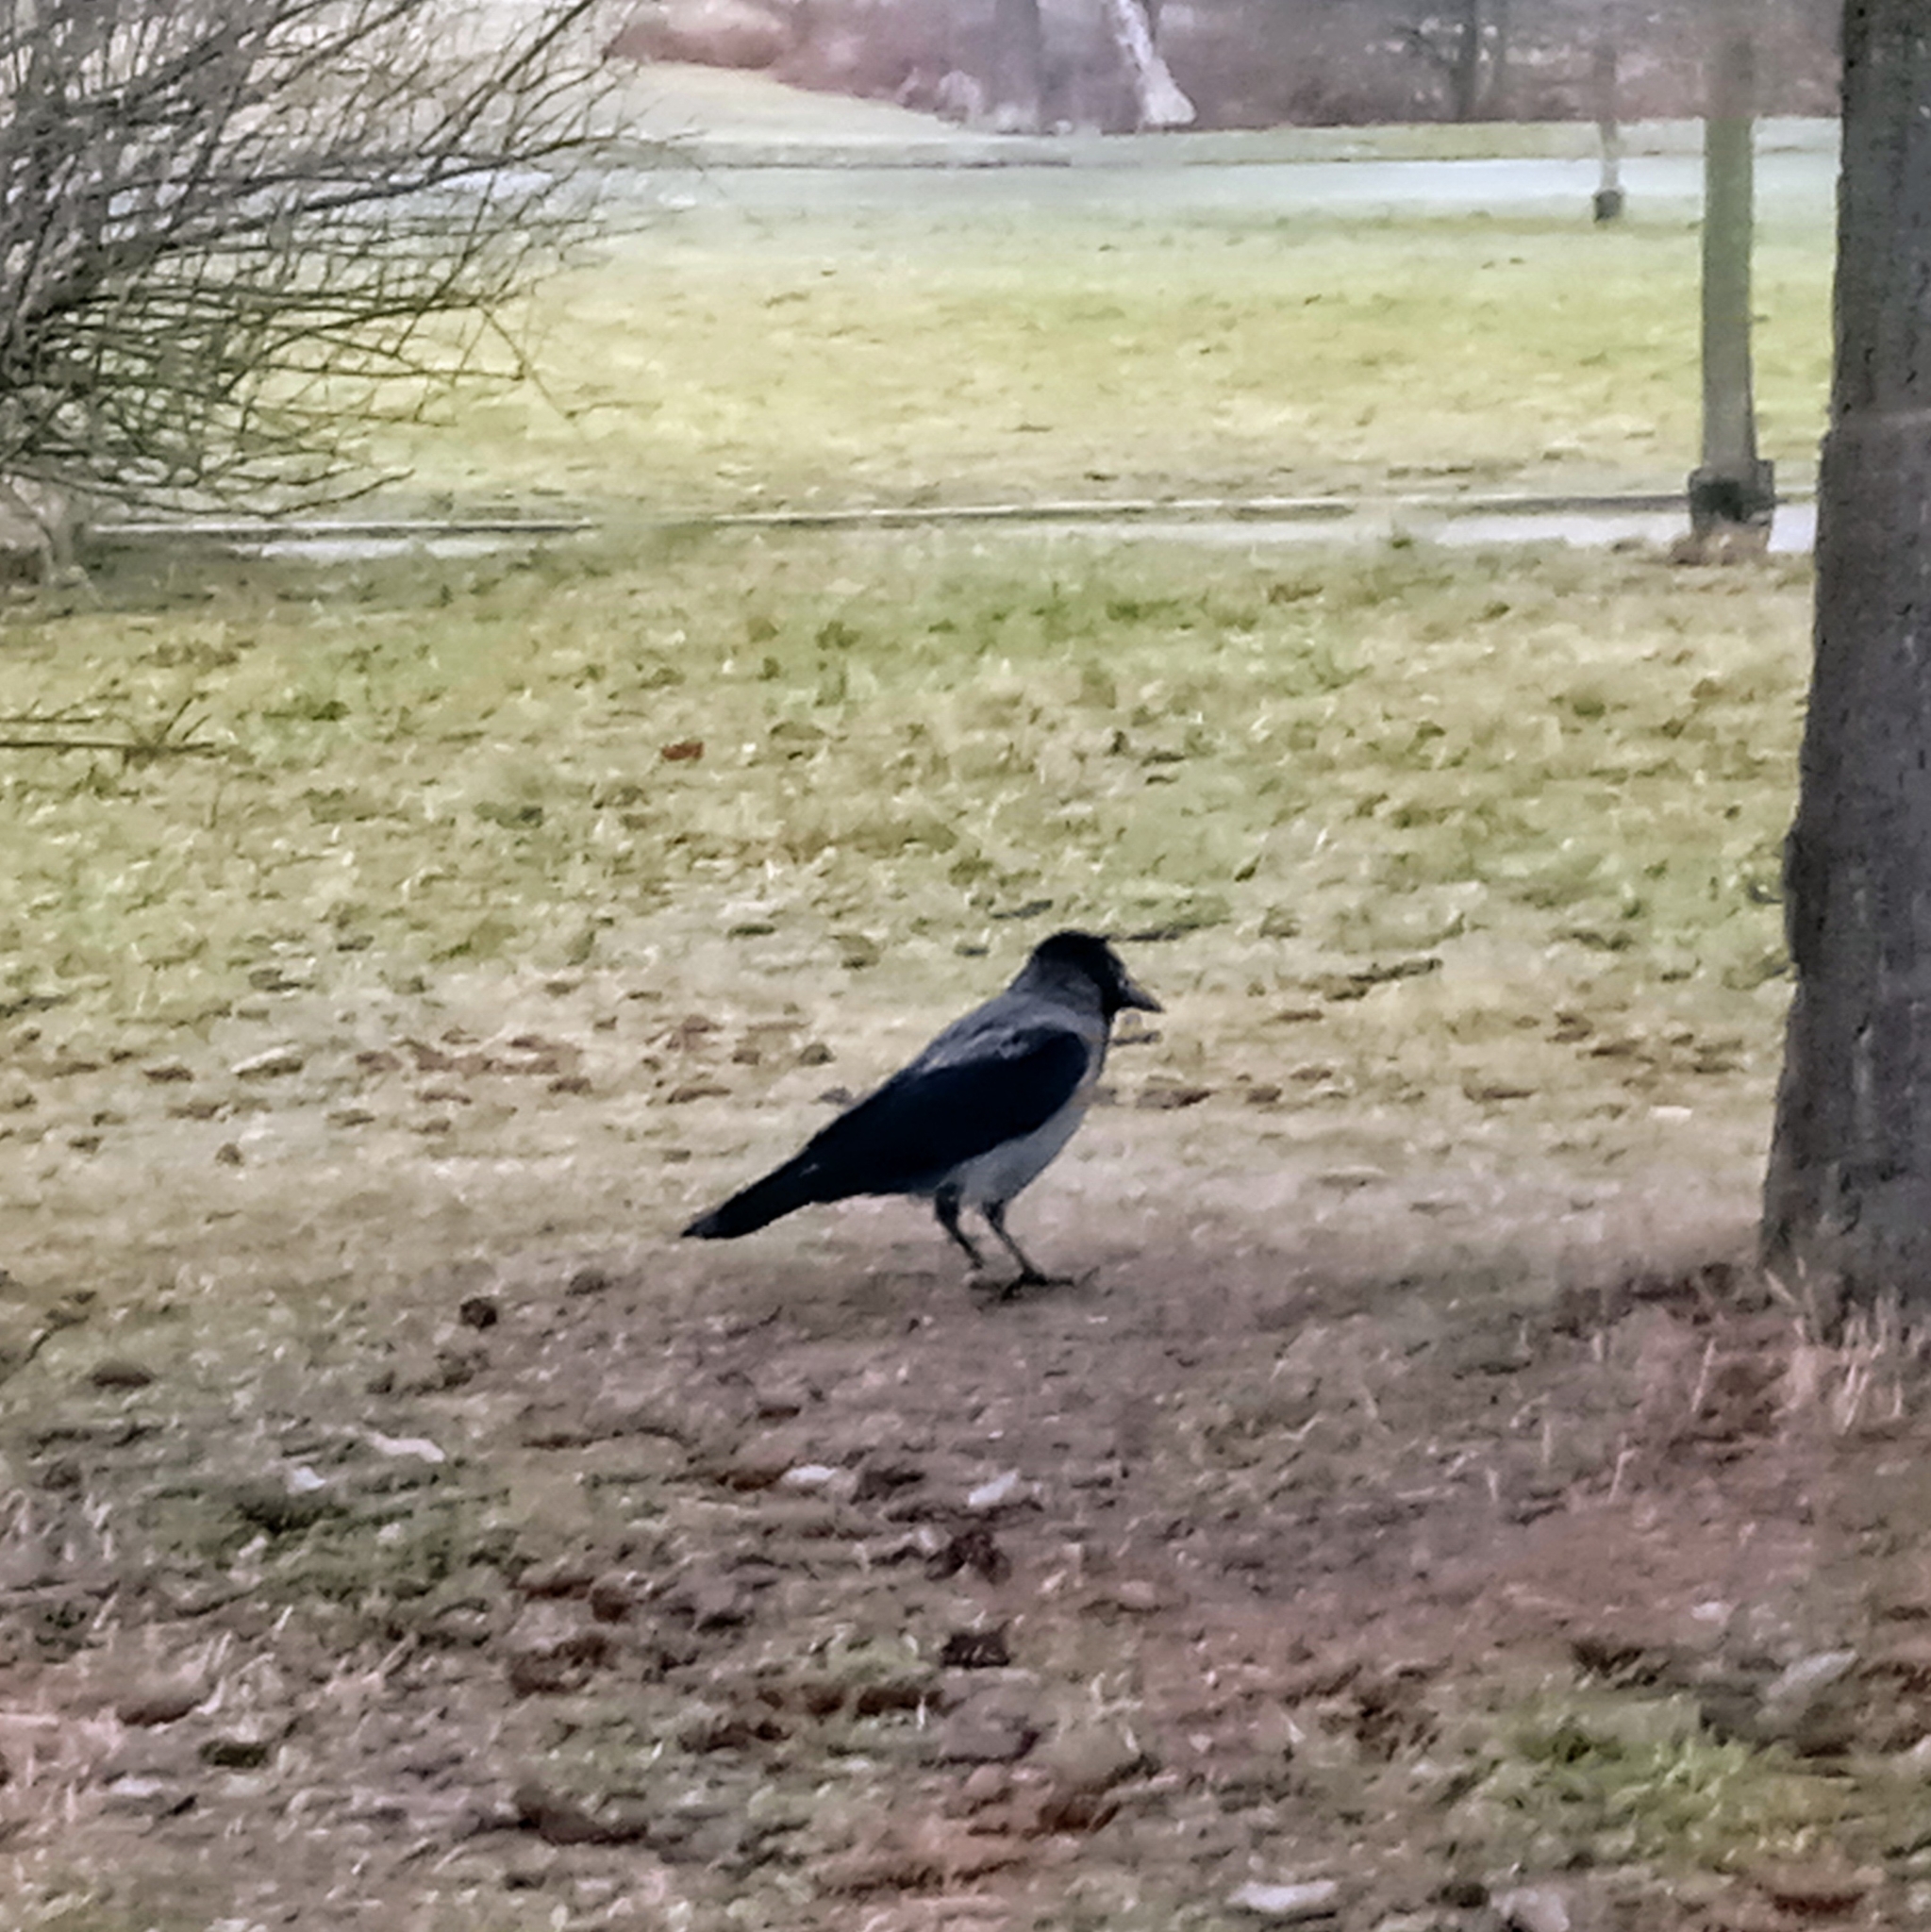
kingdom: Animalia
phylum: Chordata
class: Aves
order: Passeriformes
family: Corvidae
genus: Corvus
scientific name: Corvus cornix
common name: Hooded crow
